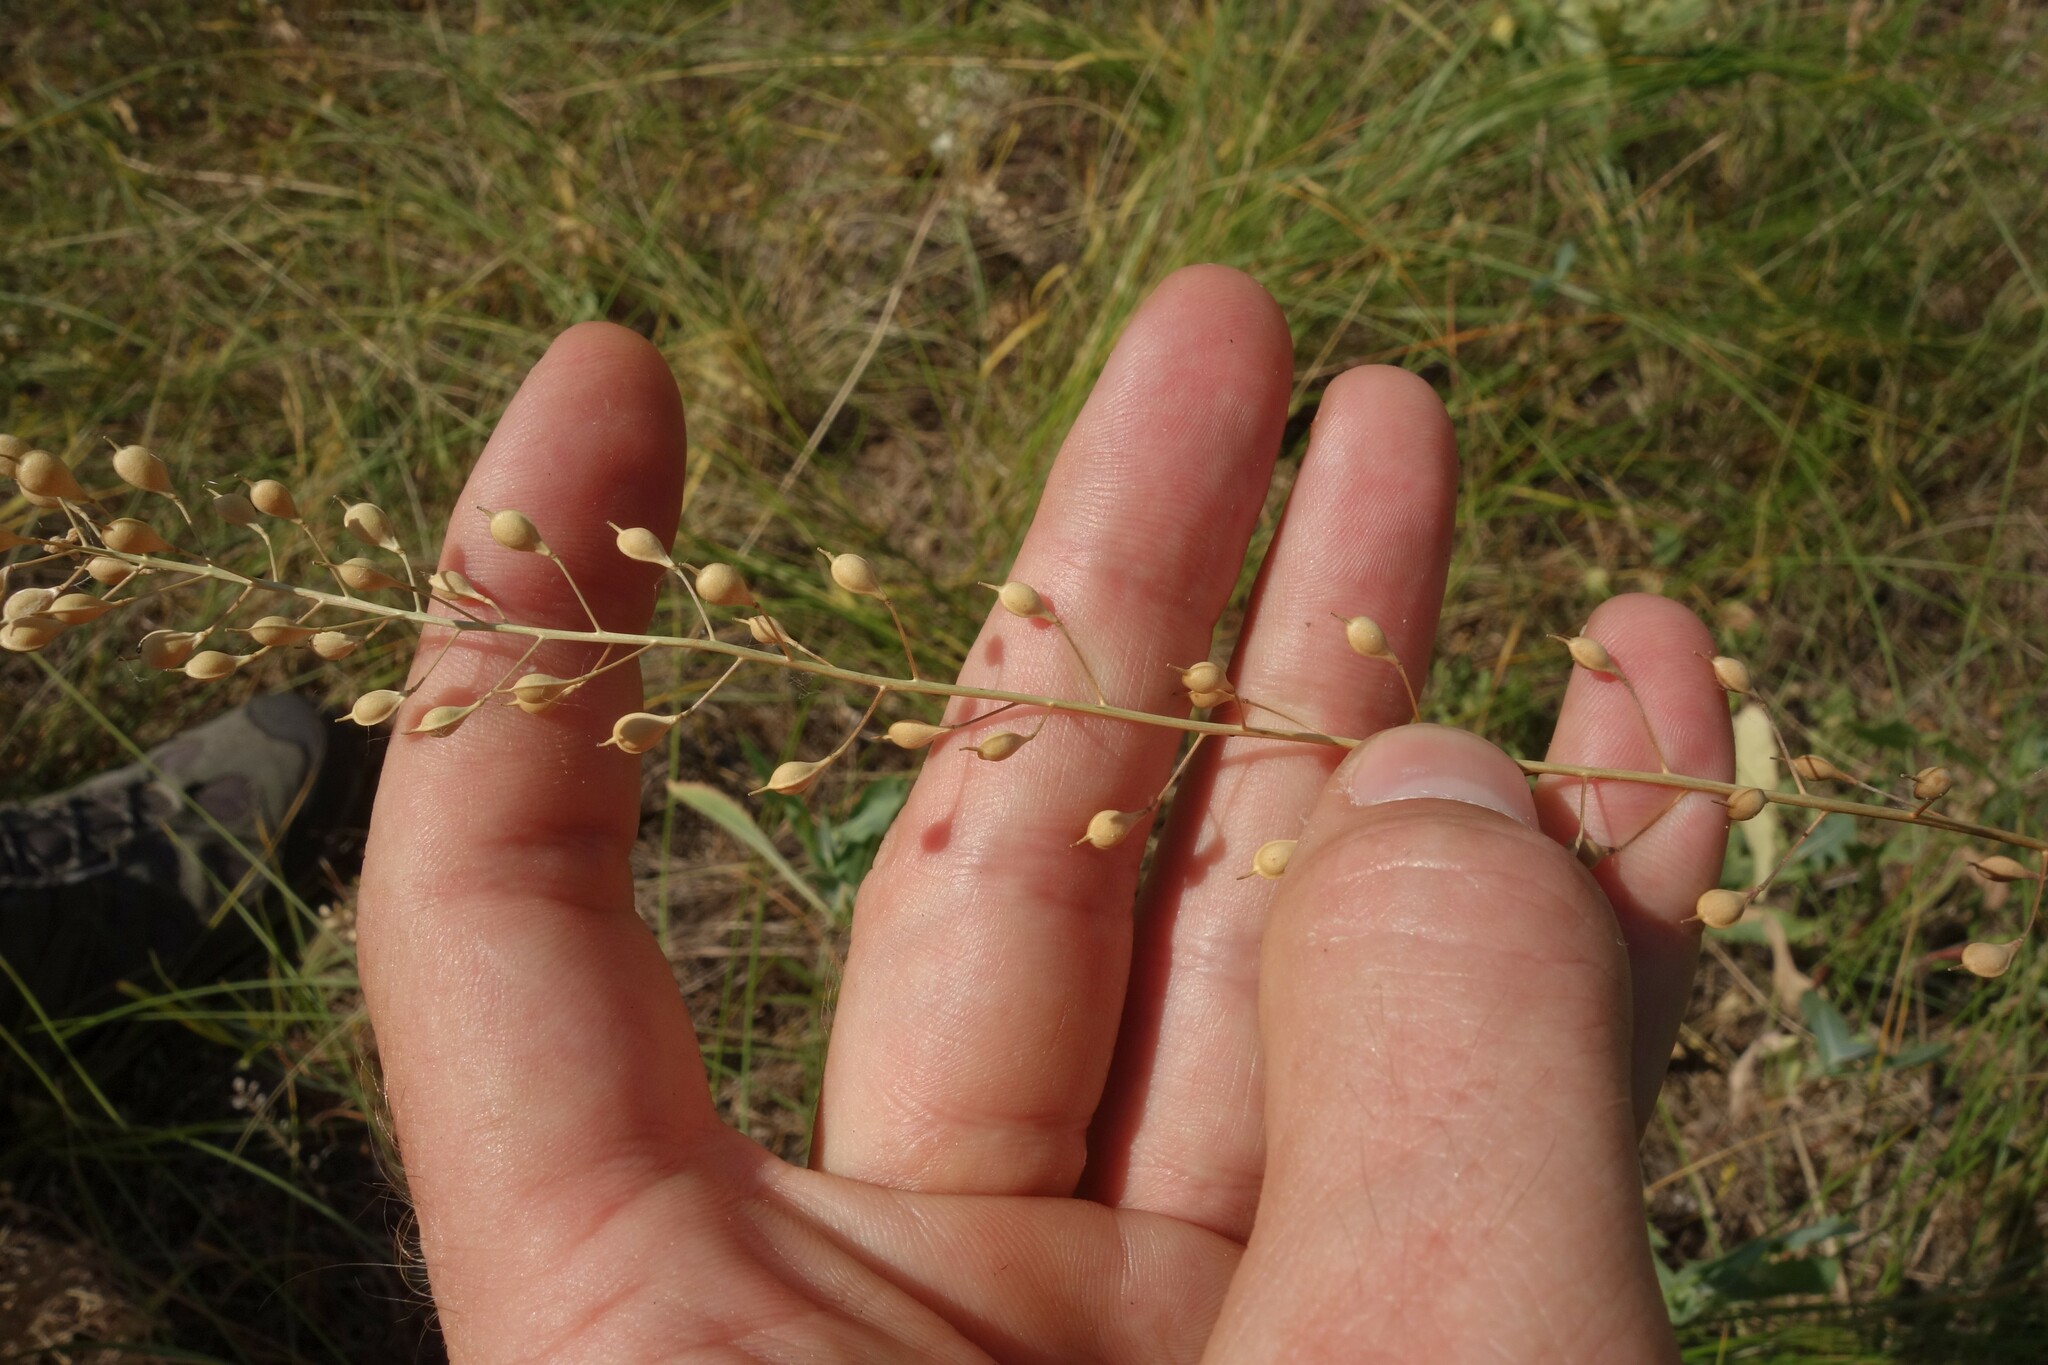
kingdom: Plantae
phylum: Tracheophyta
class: Magnoliopsida
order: Brassicales
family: Brassicaceae
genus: Camelina
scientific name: Camelina microcarpa
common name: Lesser gold-of-pleasure
